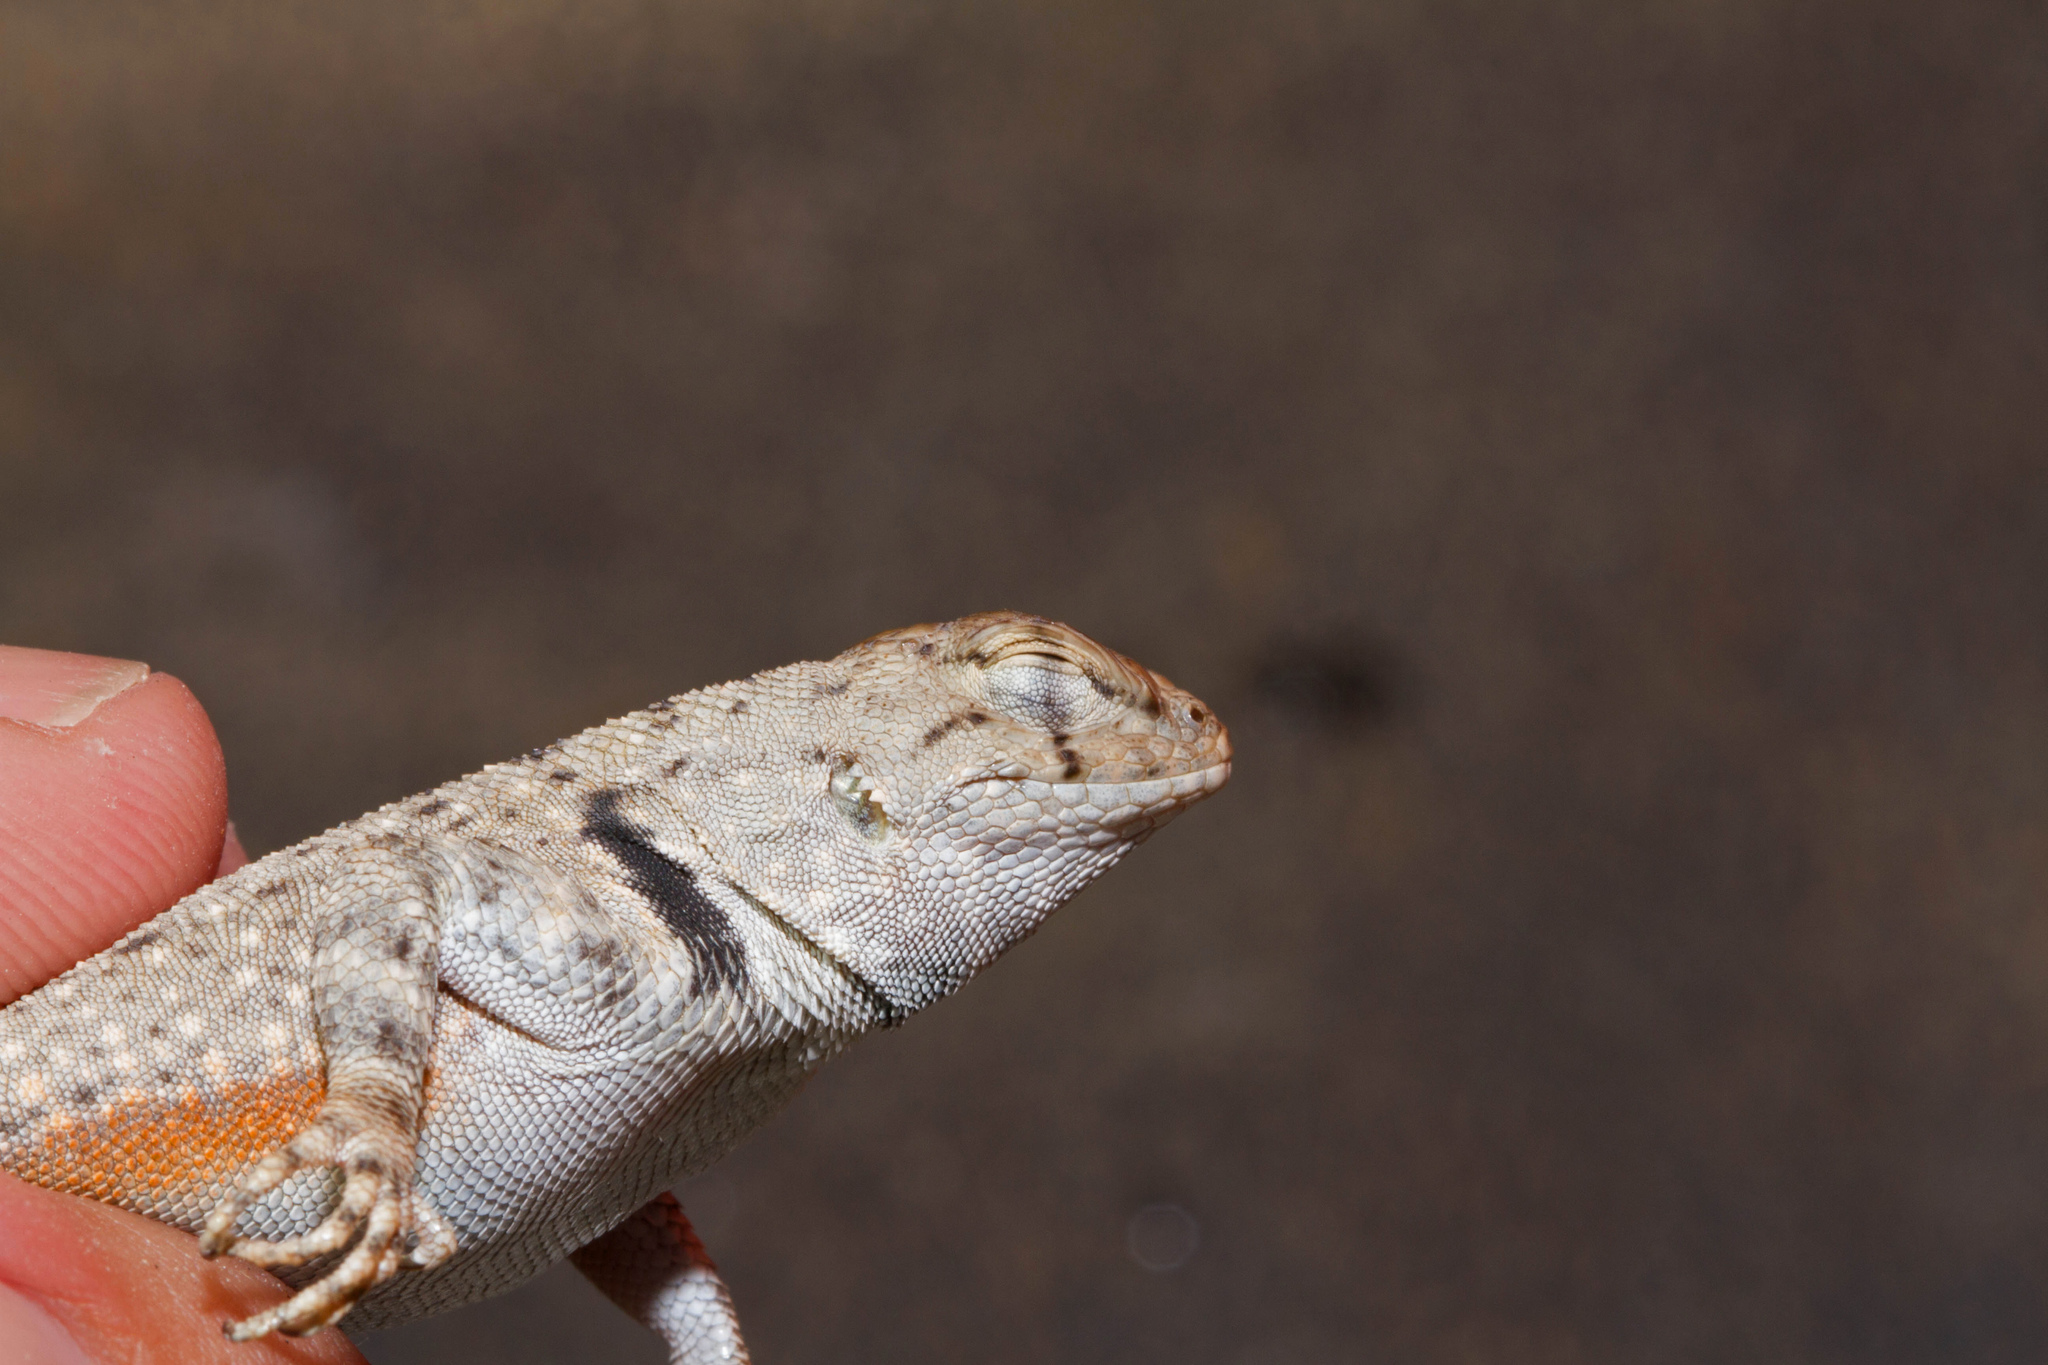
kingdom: Animalia
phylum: Chordata
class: Squamata
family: Phrynosomatidae
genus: Sceloporus
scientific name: Sceloporus merriami
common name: Canyon lizard
